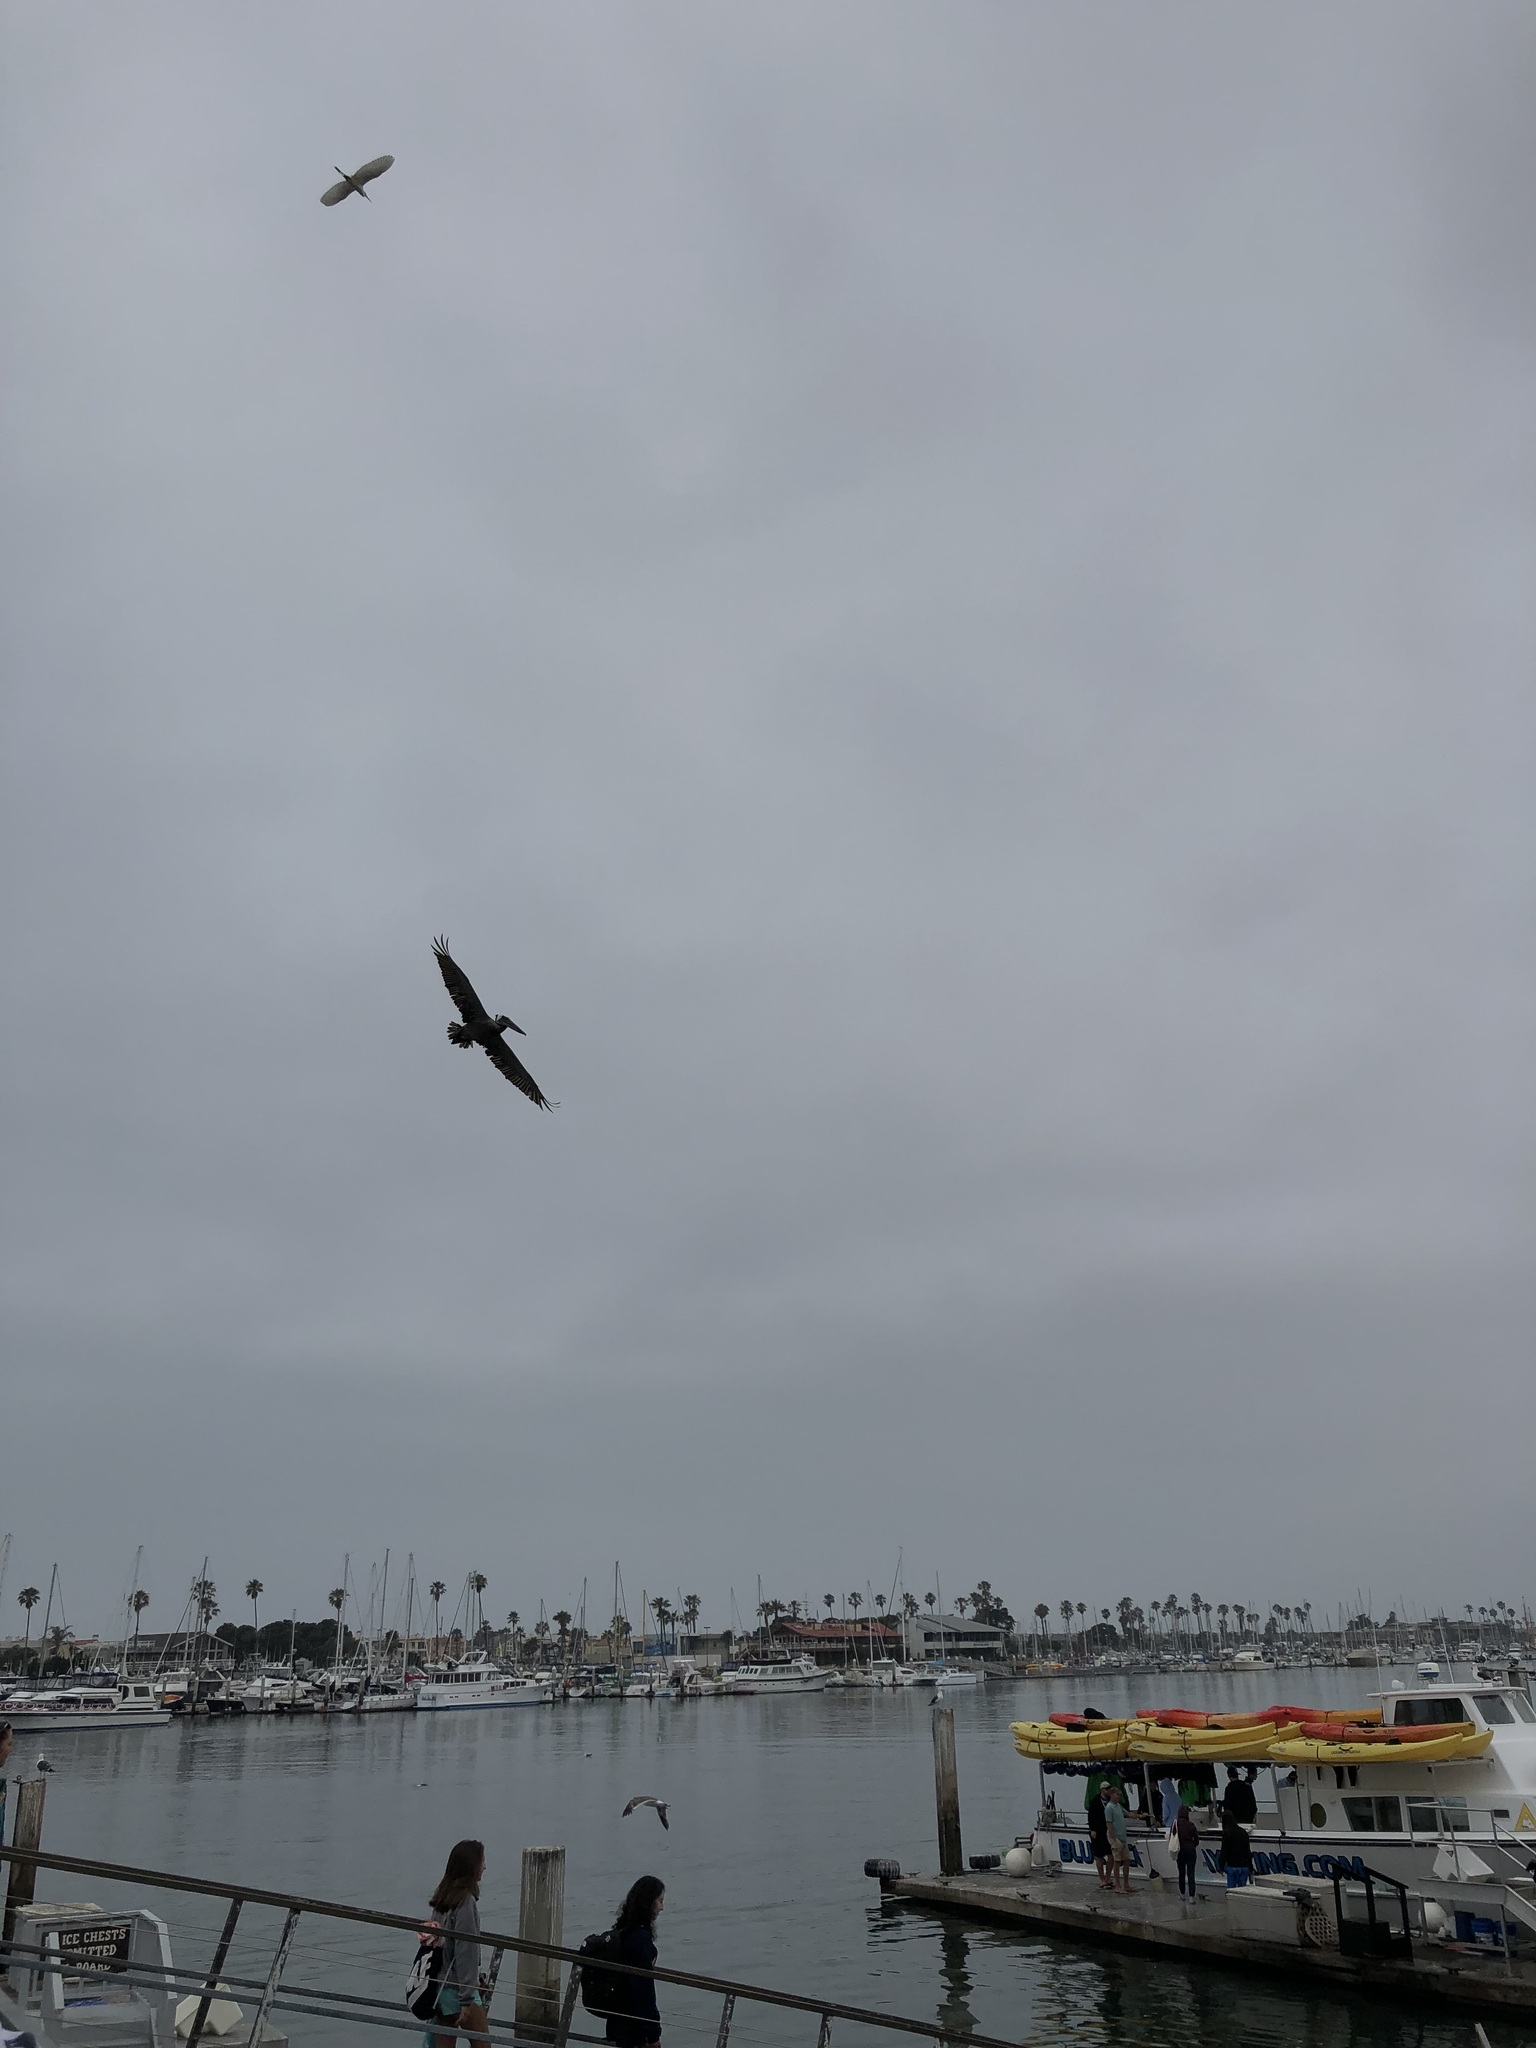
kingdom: Animalia
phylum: Chordata
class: Aves
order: Pelecaniformes
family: Pelecanidae
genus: Pelecanus
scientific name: Pelecanus occidentalis
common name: Brown pelican
